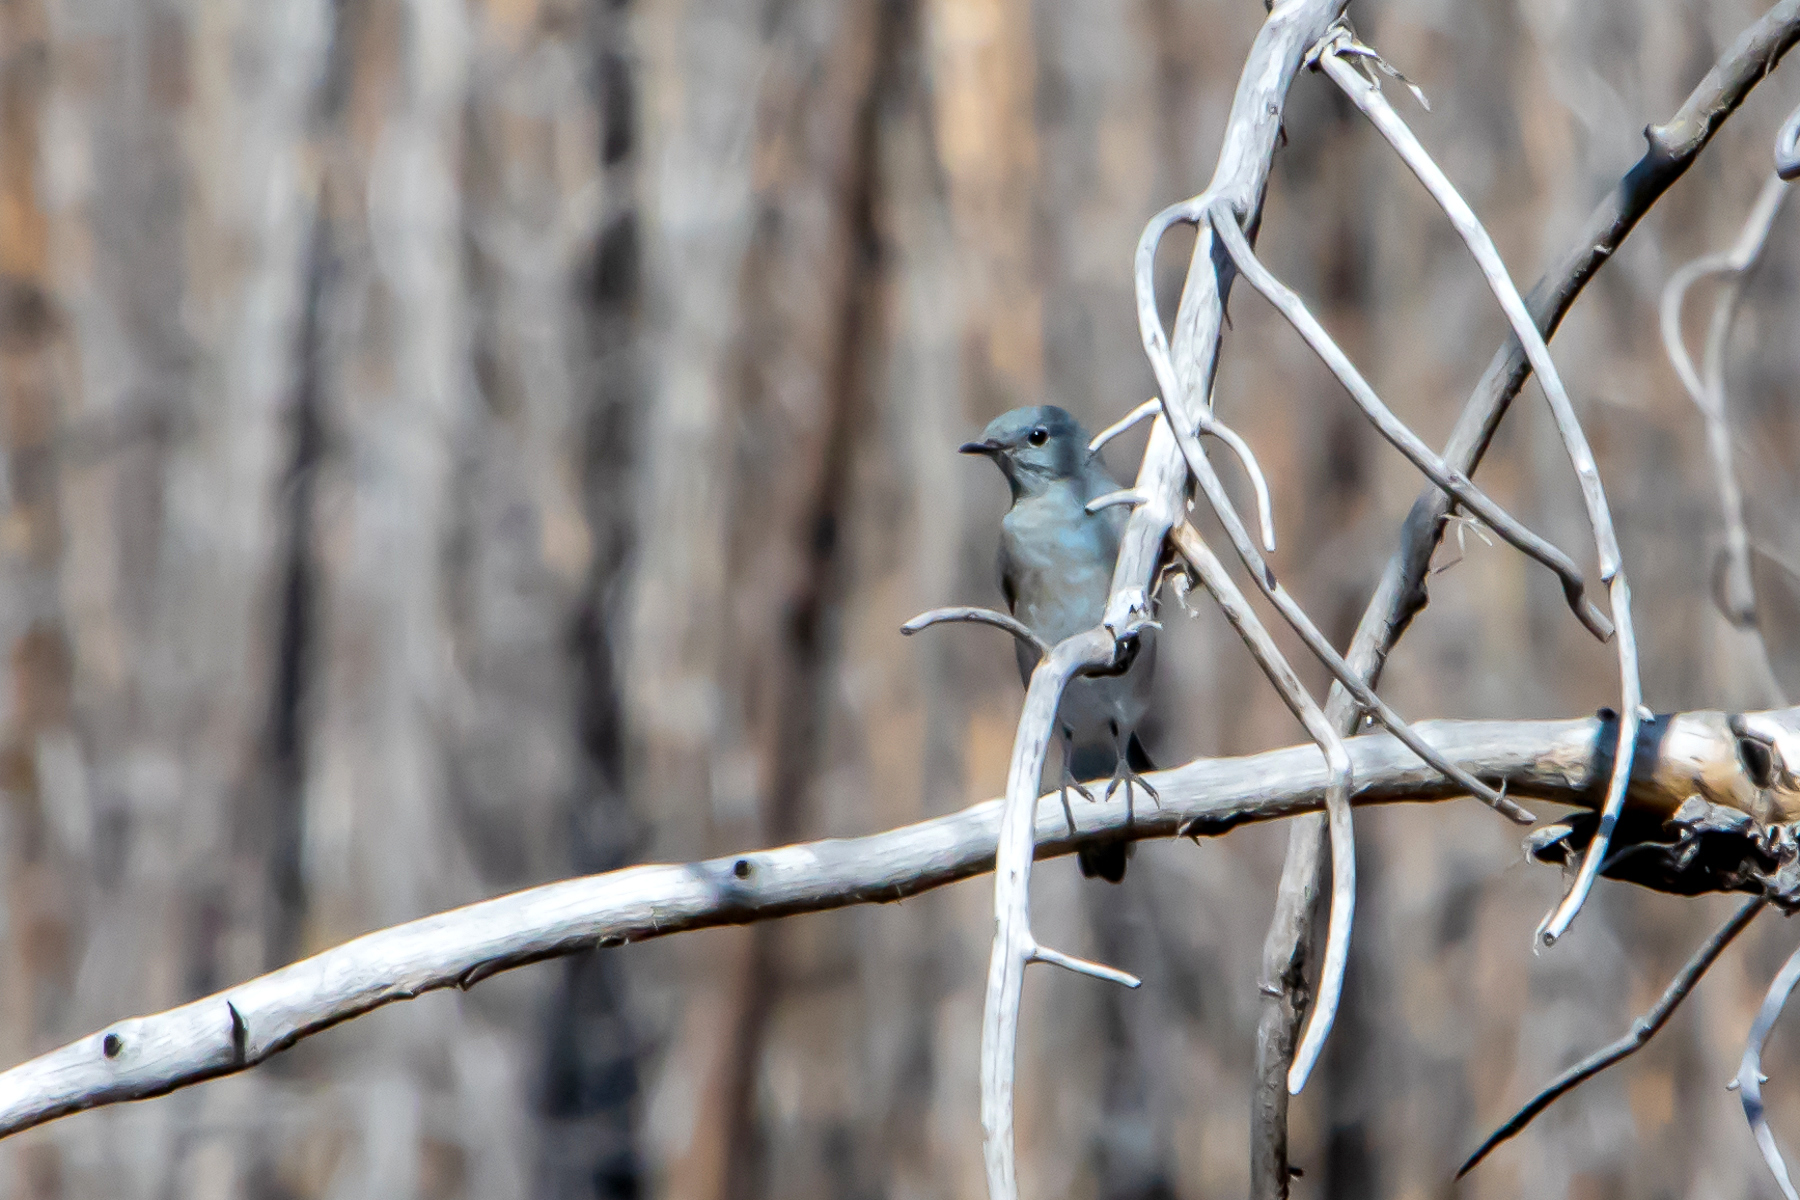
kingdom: Animalia
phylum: Chordata
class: Aves
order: Passeriformes
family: Turdidae
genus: Sialia
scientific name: Sialia currucoides
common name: Mountain bluebird
